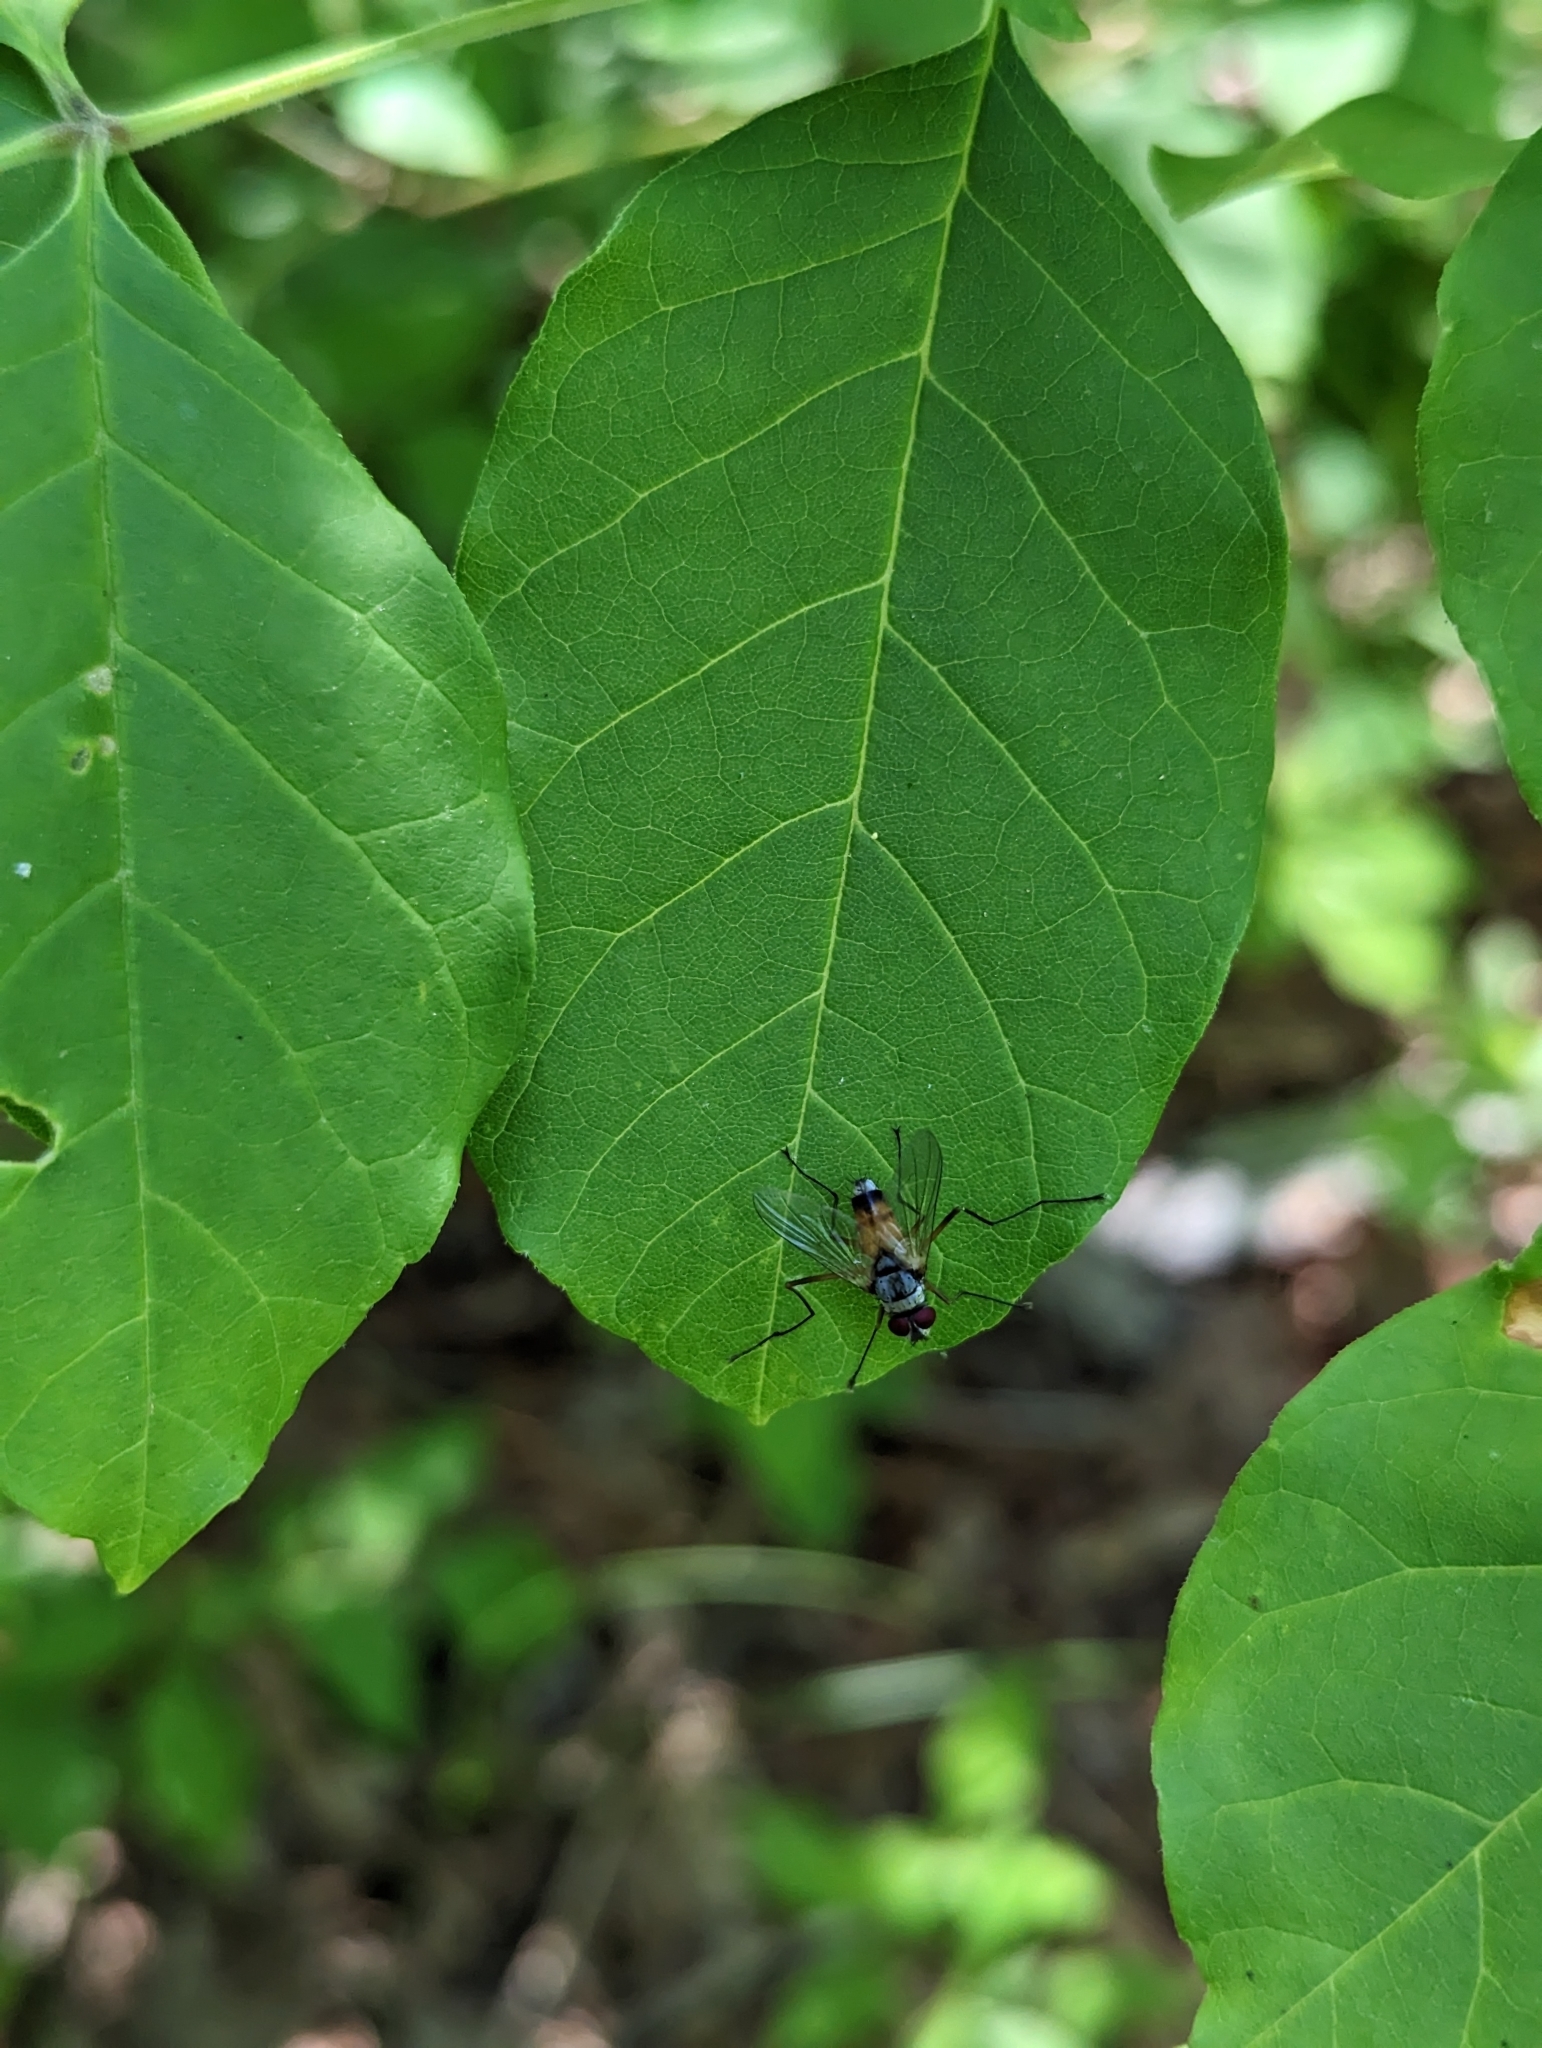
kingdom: Animalia
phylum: Arthropoda
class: Insecta
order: Diptera
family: Tachinidae
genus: Cholomyia
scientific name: Cholomyia inaequipes
